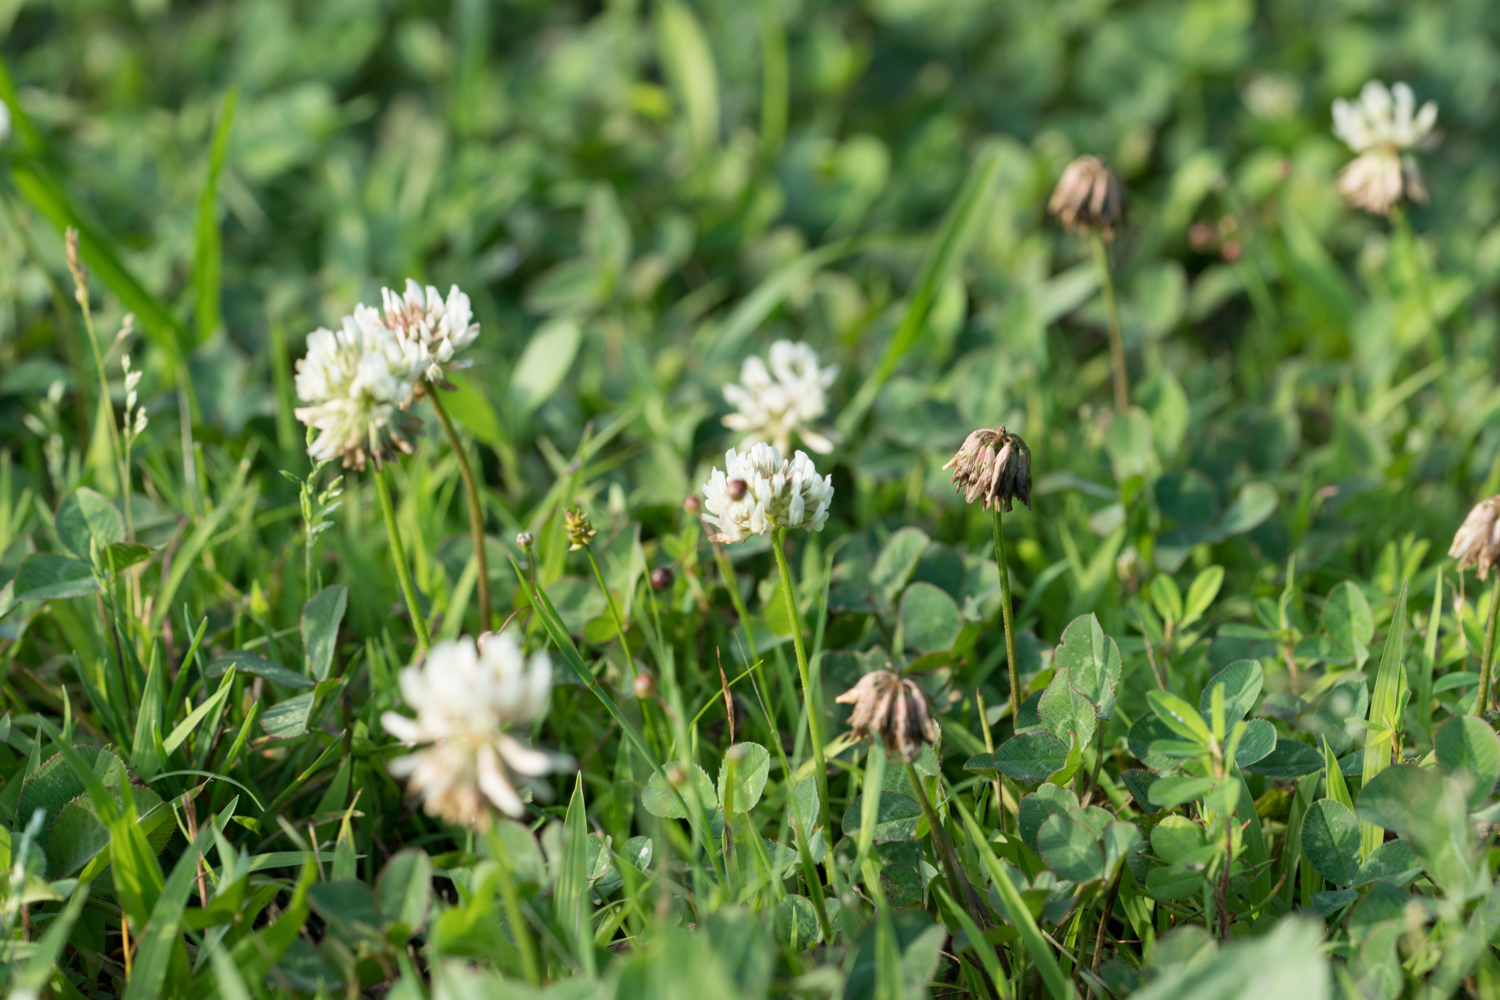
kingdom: Plantae
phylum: Tracheophyta
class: Magnoliopsida
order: Fabales
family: Fabaceae
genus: Trifolium
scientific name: Trifolium repens
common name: White clover
